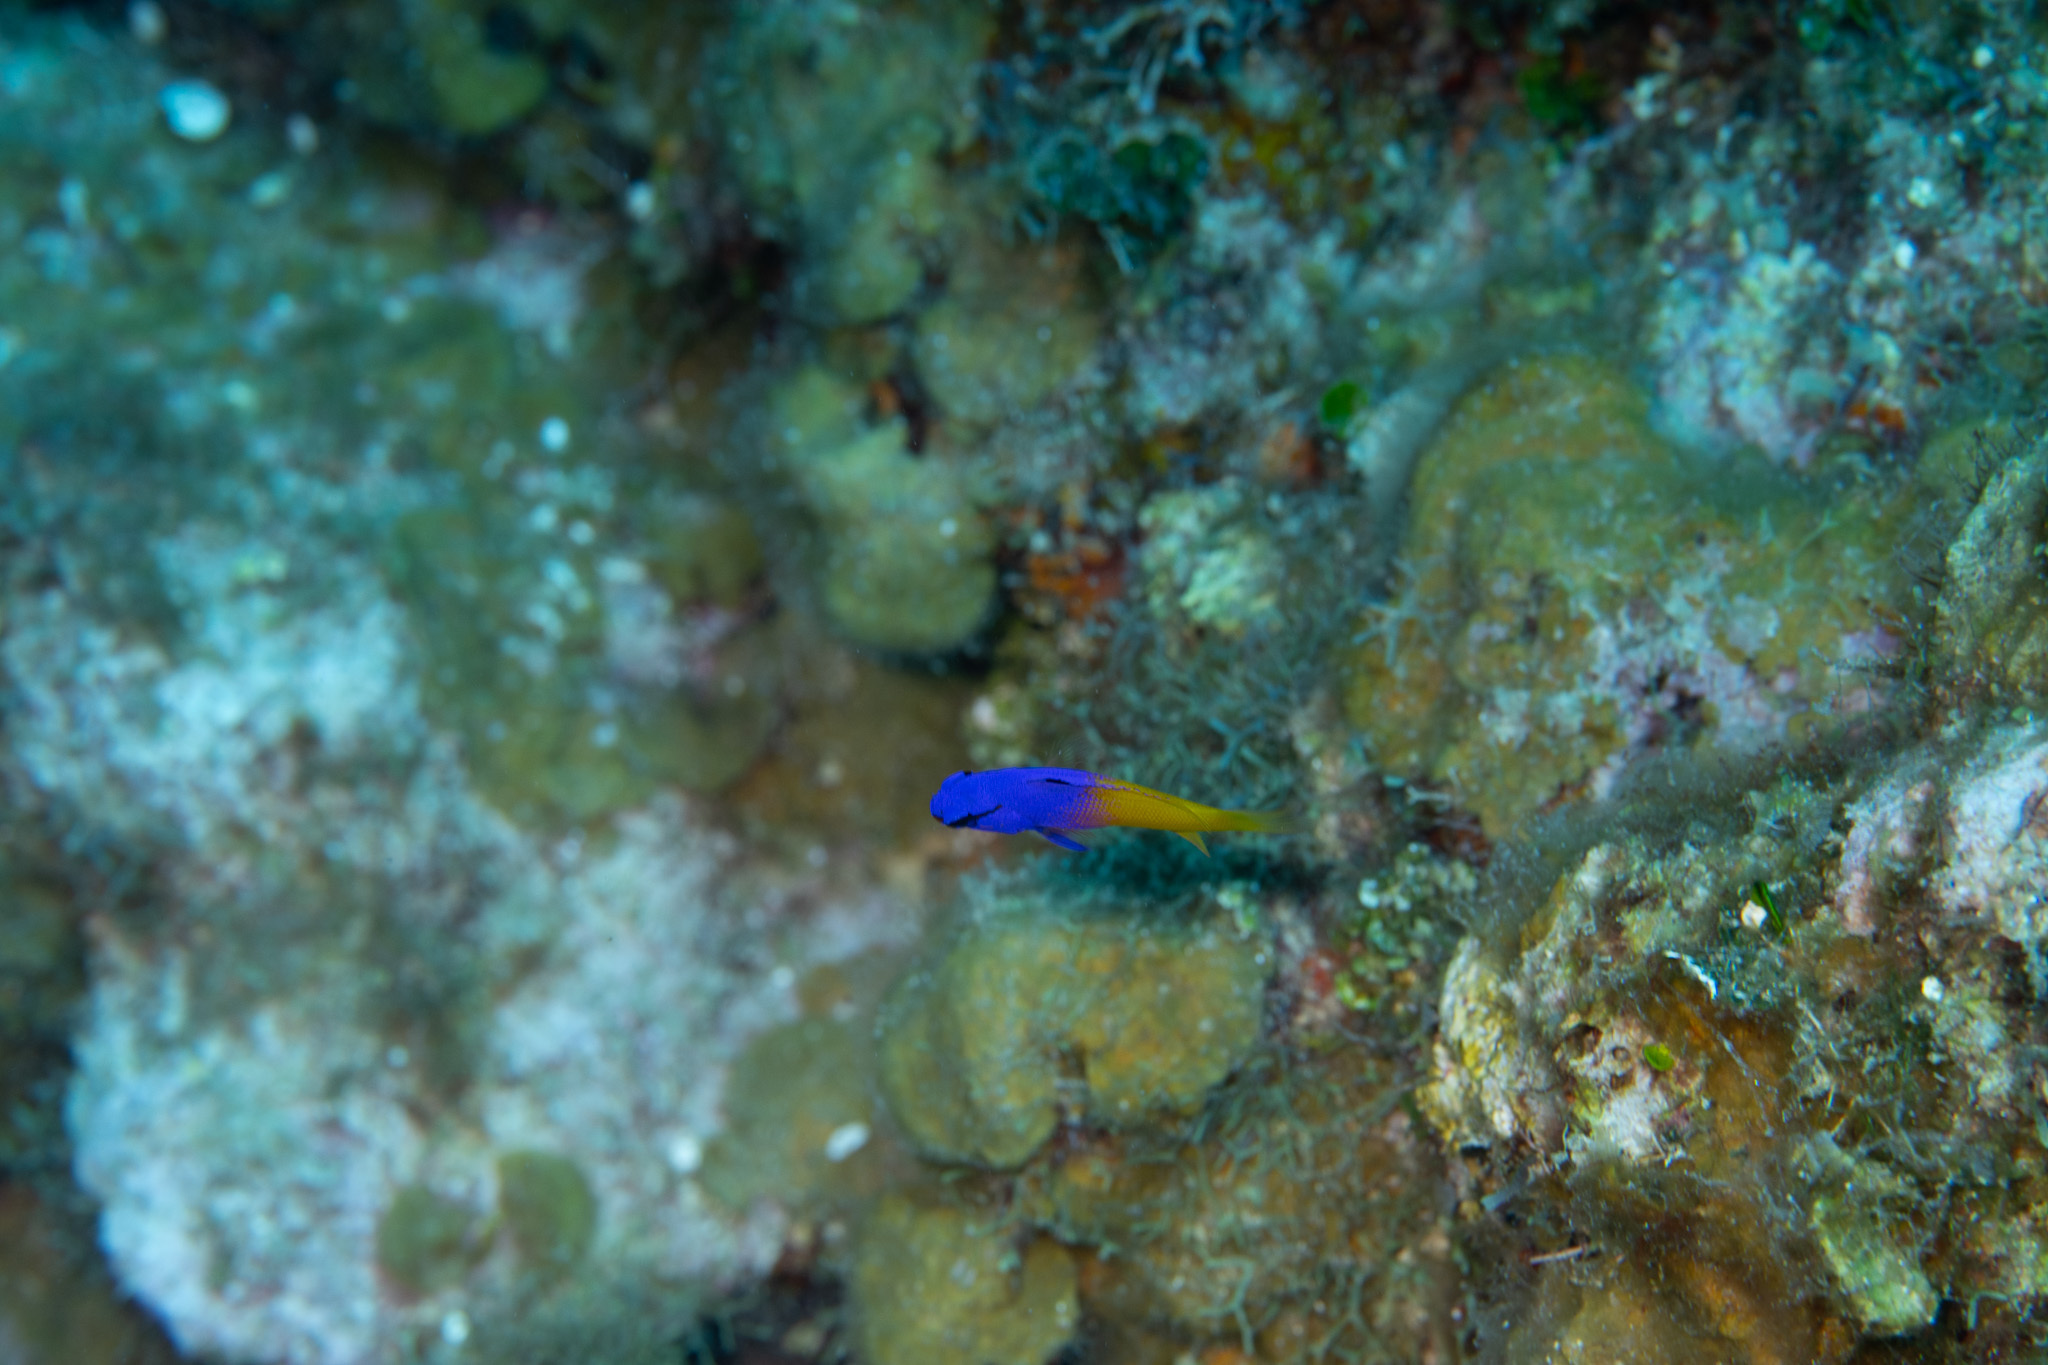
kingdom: Animalia
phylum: Chordata
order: Perciformes
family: Grammatidae
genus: Gramma
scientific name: Gramma loreto
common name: Fairy basslet
